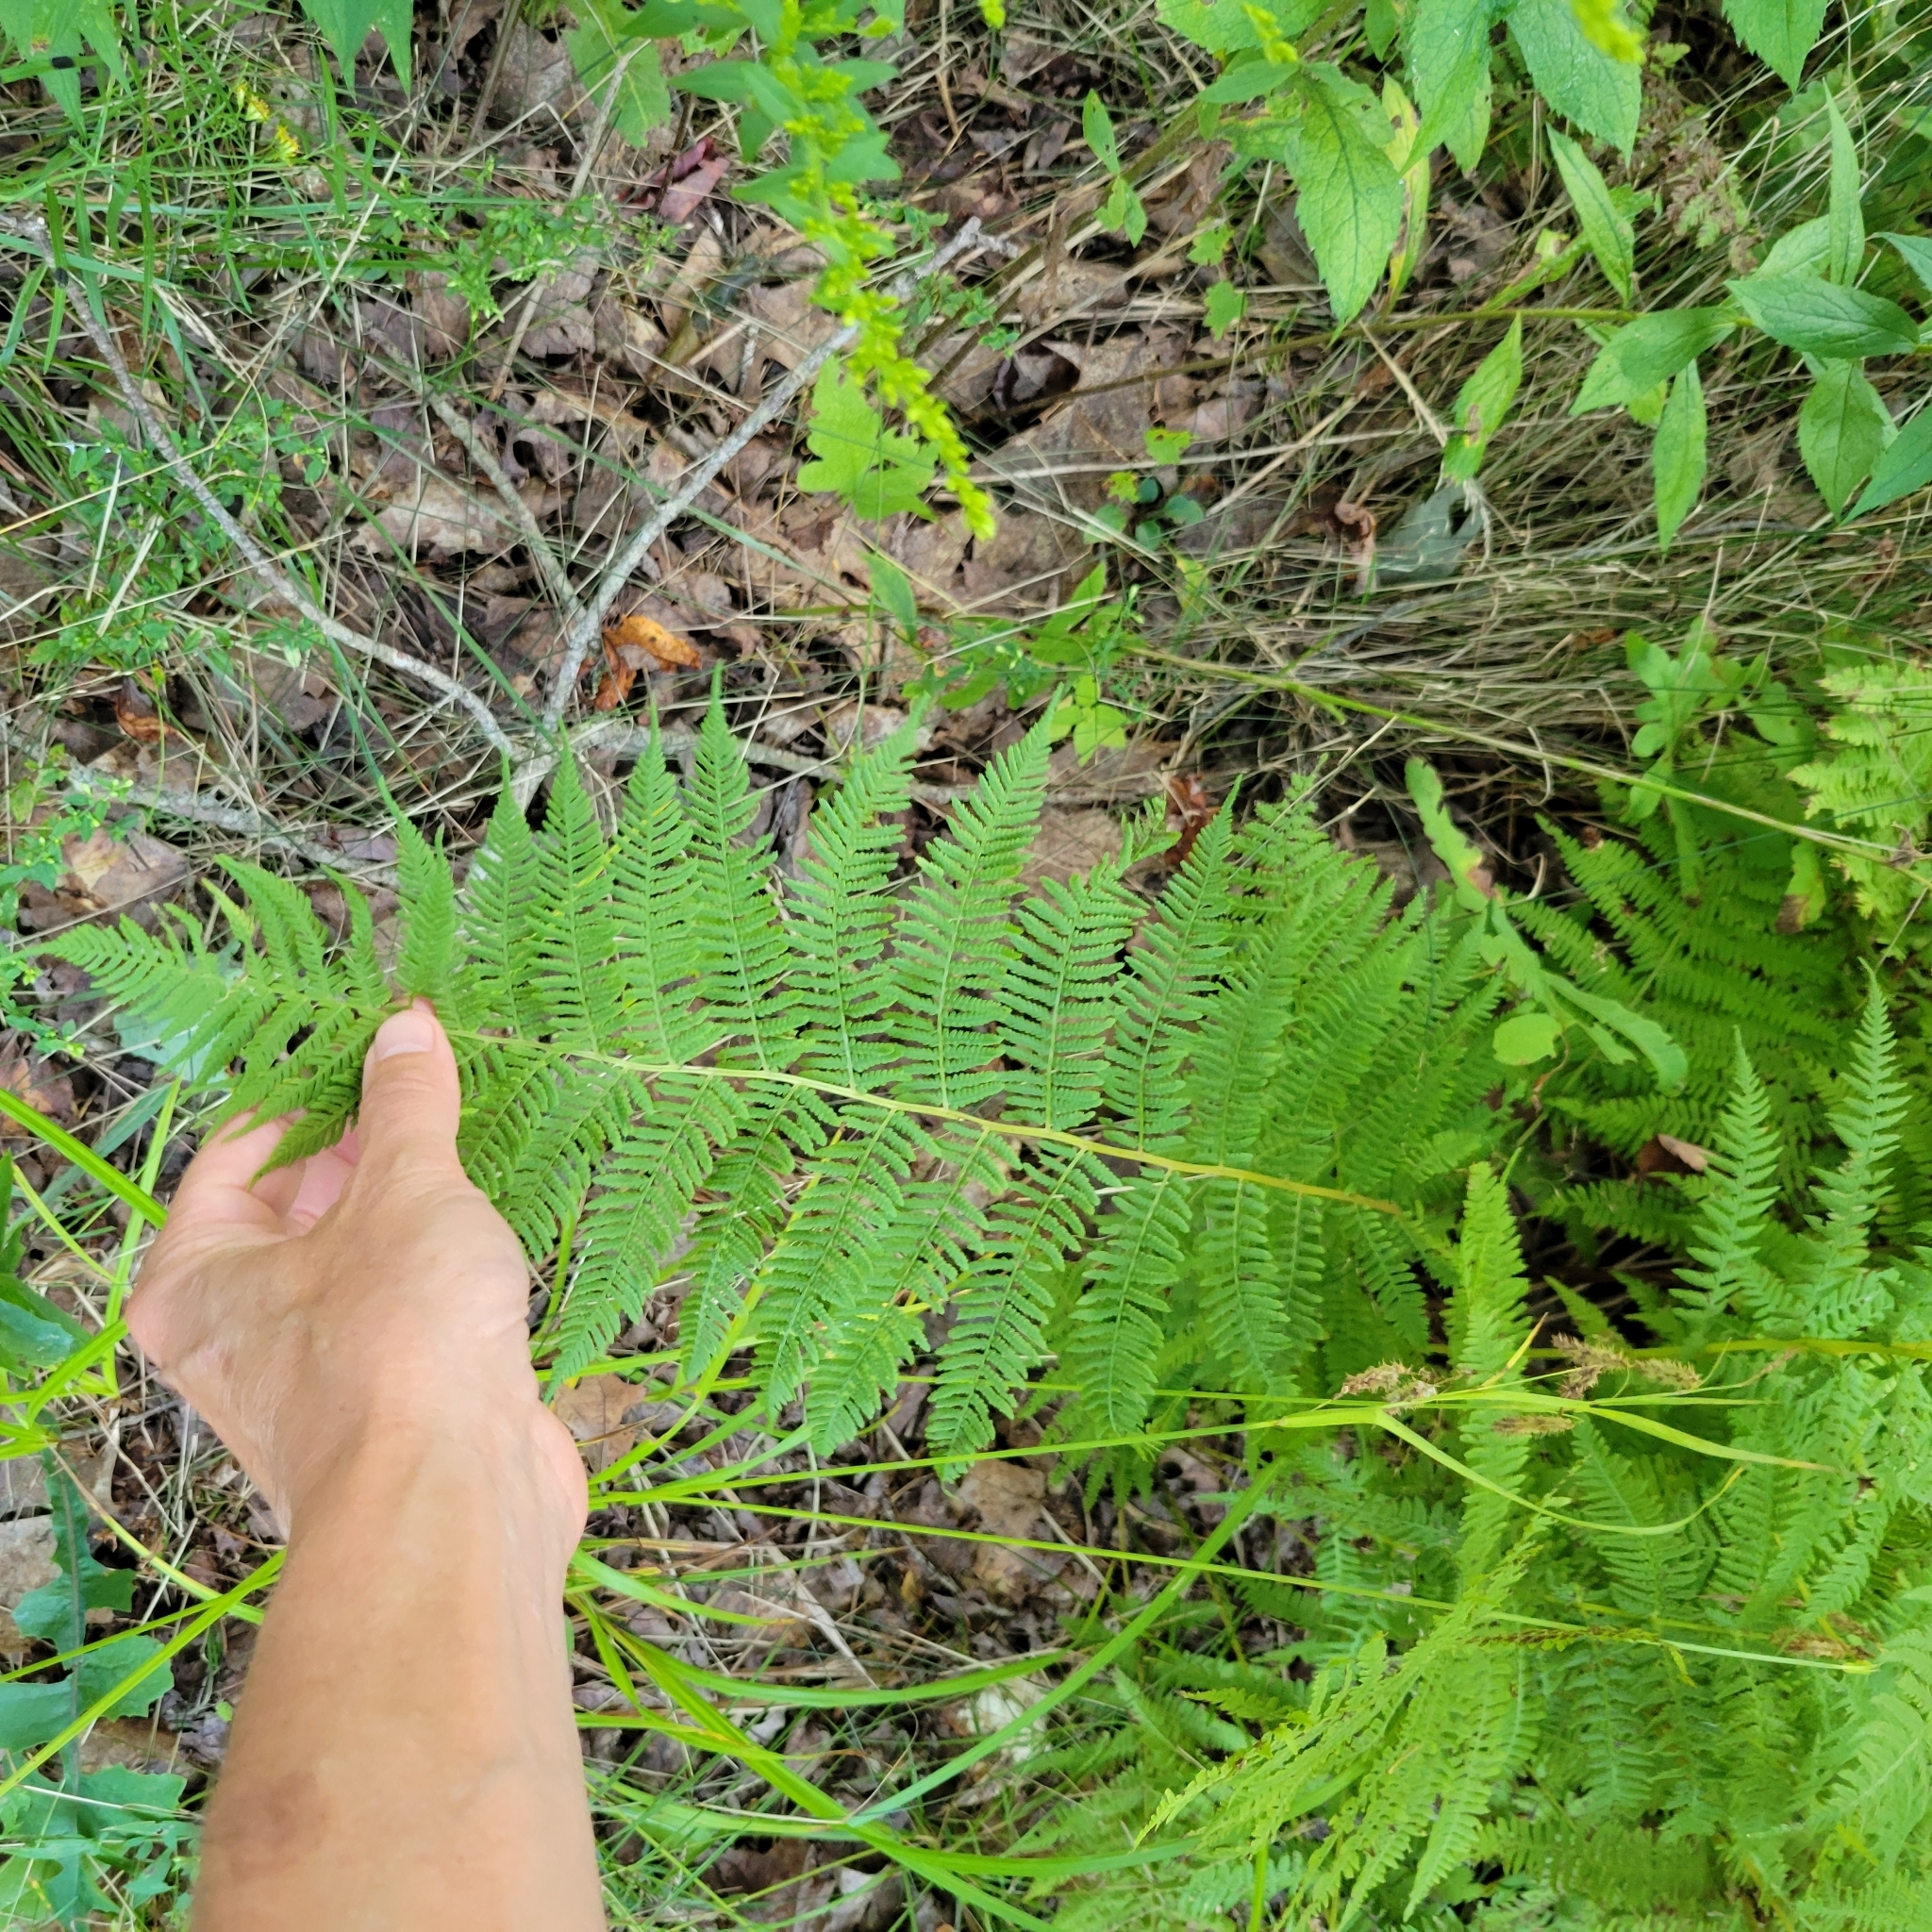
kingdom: Plantae
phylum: Tracheophyta
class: Polypodiopsida
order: Polypodiales
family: Athyriaceae
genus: Athyrium
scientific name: Athyrium angustum
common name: Northern lady fern
